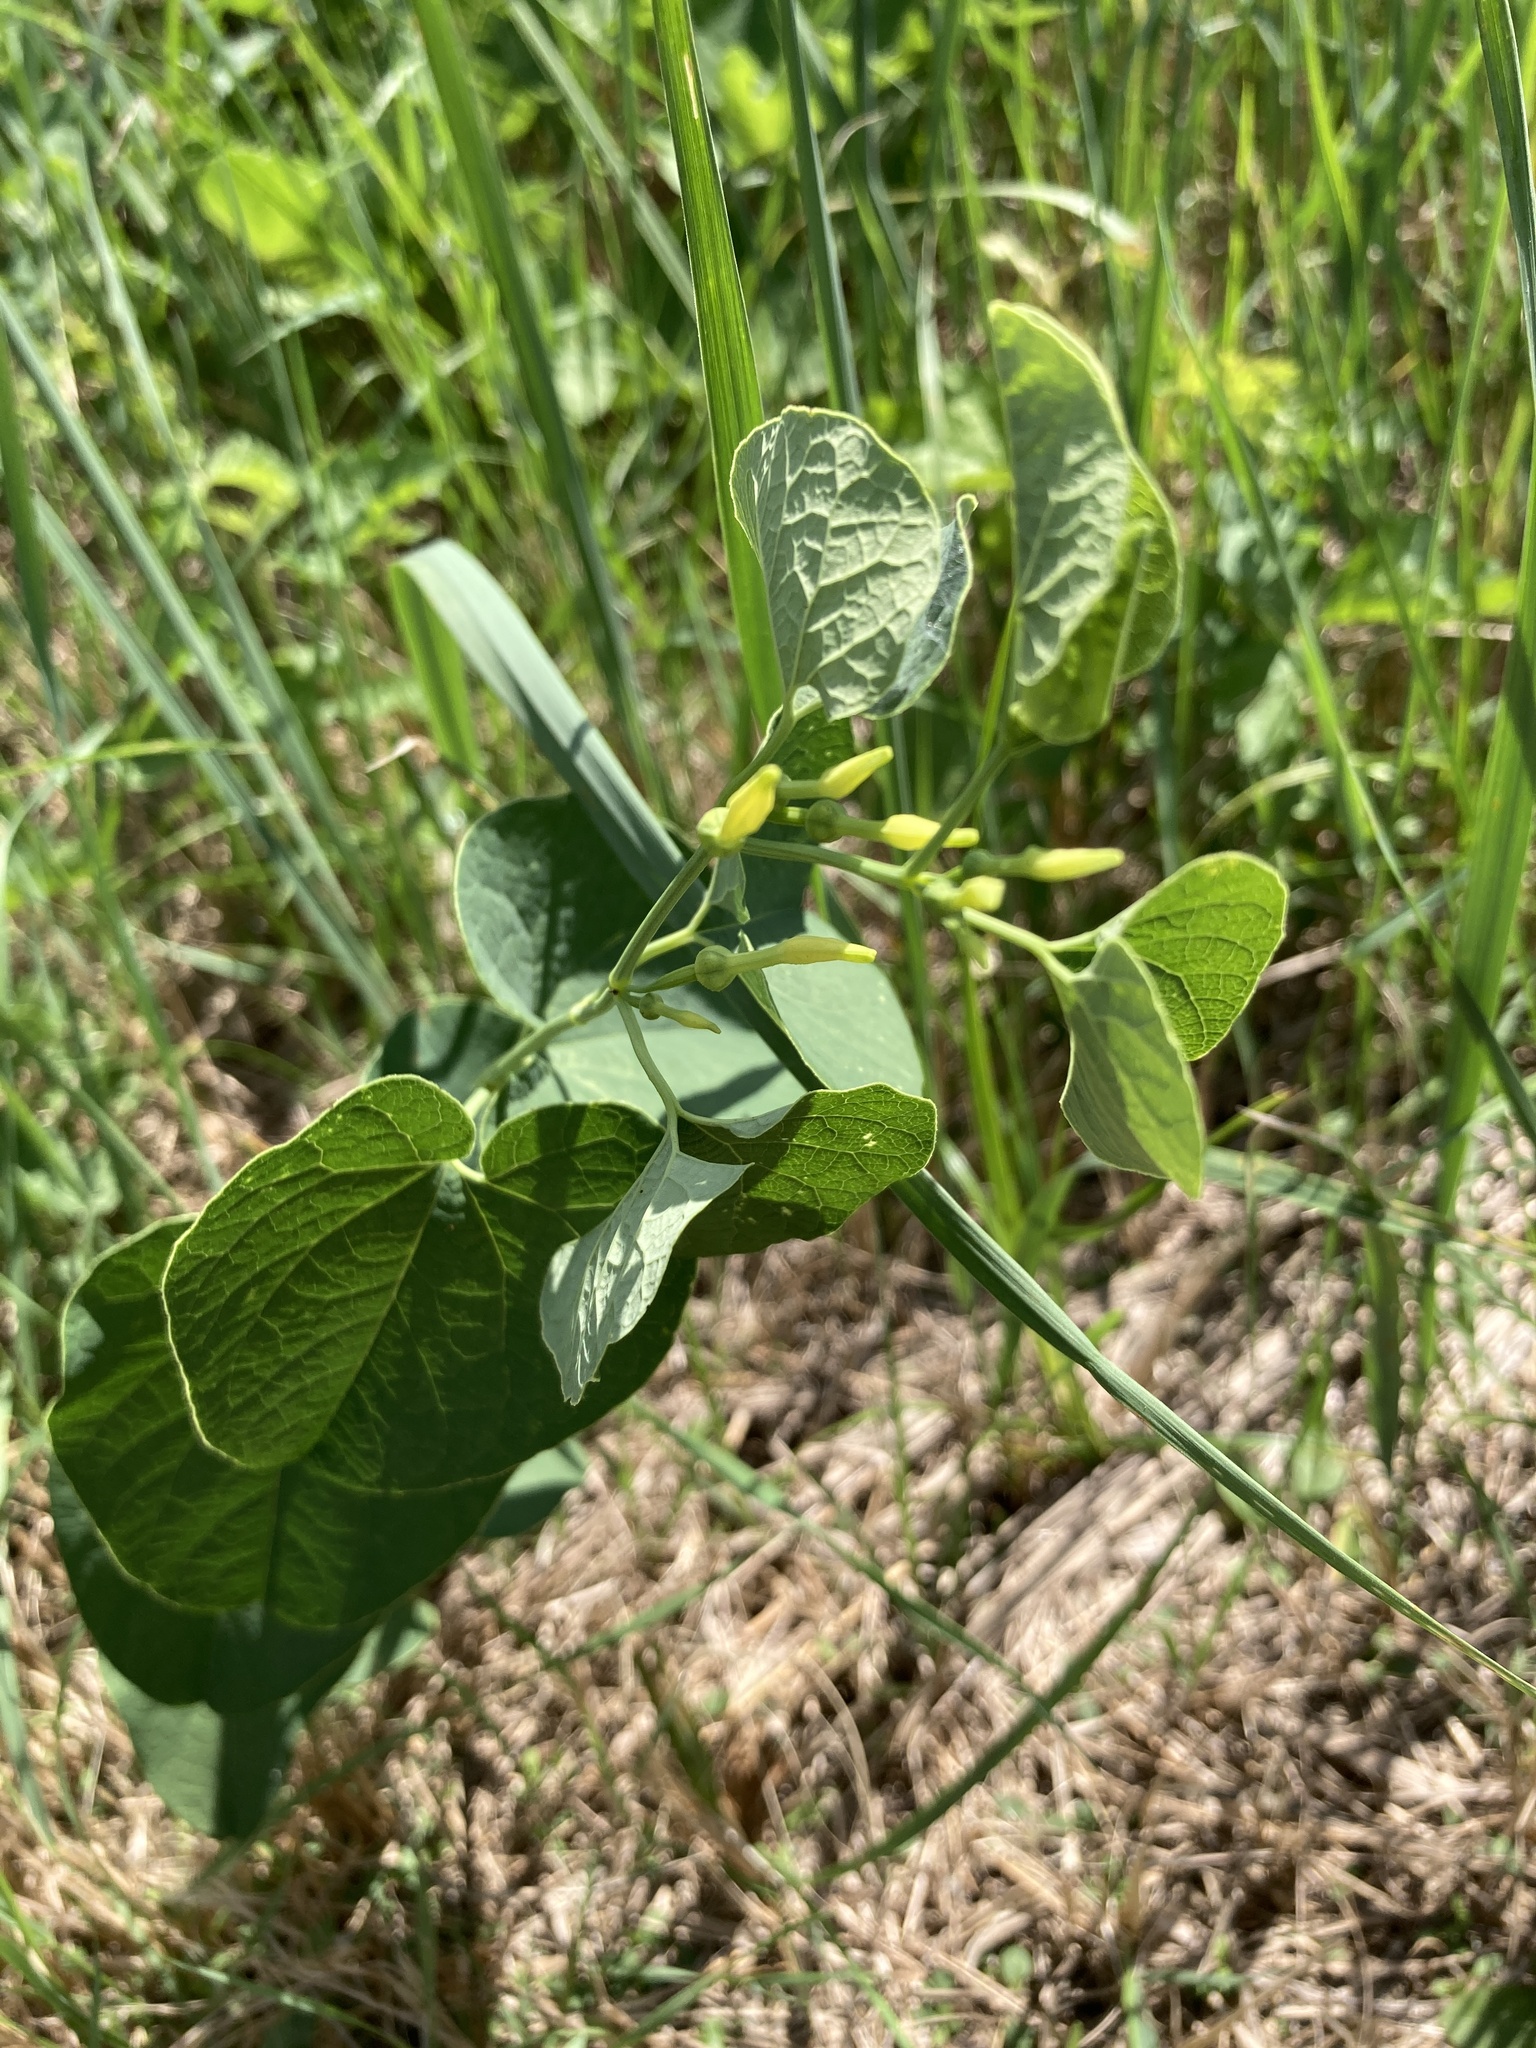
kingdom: Plantae
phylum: Tracheophyta
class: Magnoliopsida
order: Piperales
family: Aristolochiaceae
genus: Aristolochia
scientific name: Aristolochia clematitis
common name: Birthwort
